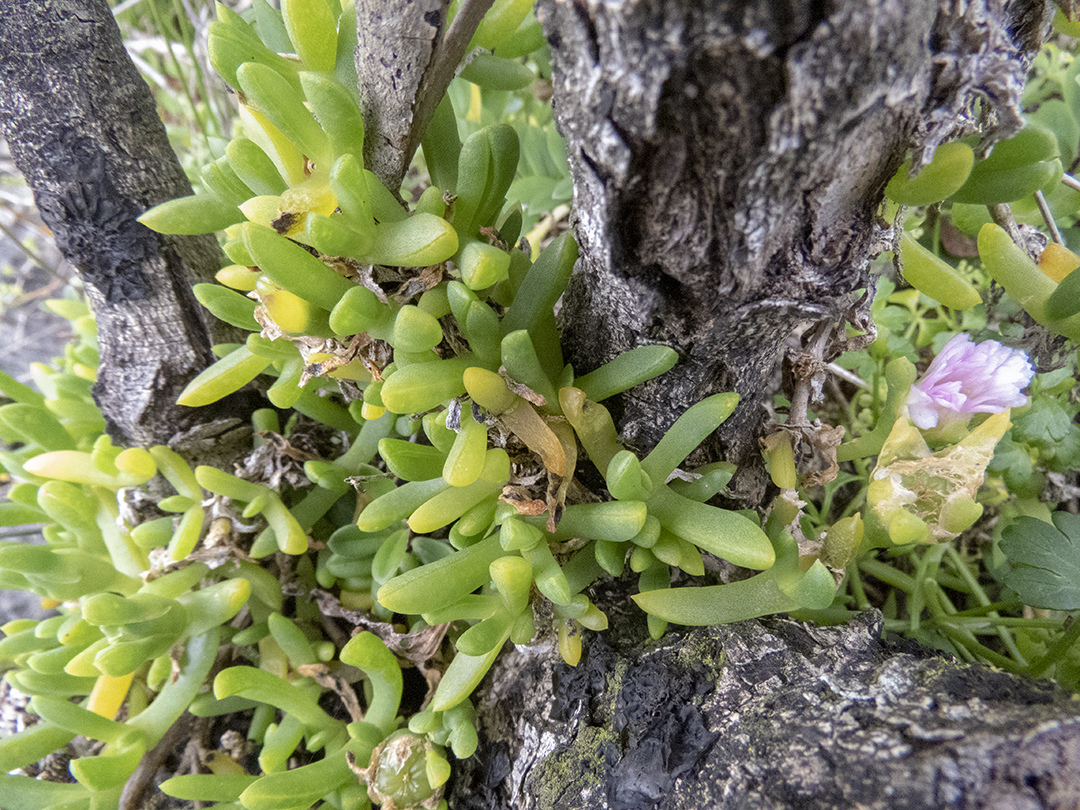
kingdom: Plantae
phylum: Tracheophyta
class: Magnoliopsida
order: Caryophyllales
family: Aizoaceae
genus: Disphyma
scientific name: Disphyma australe
